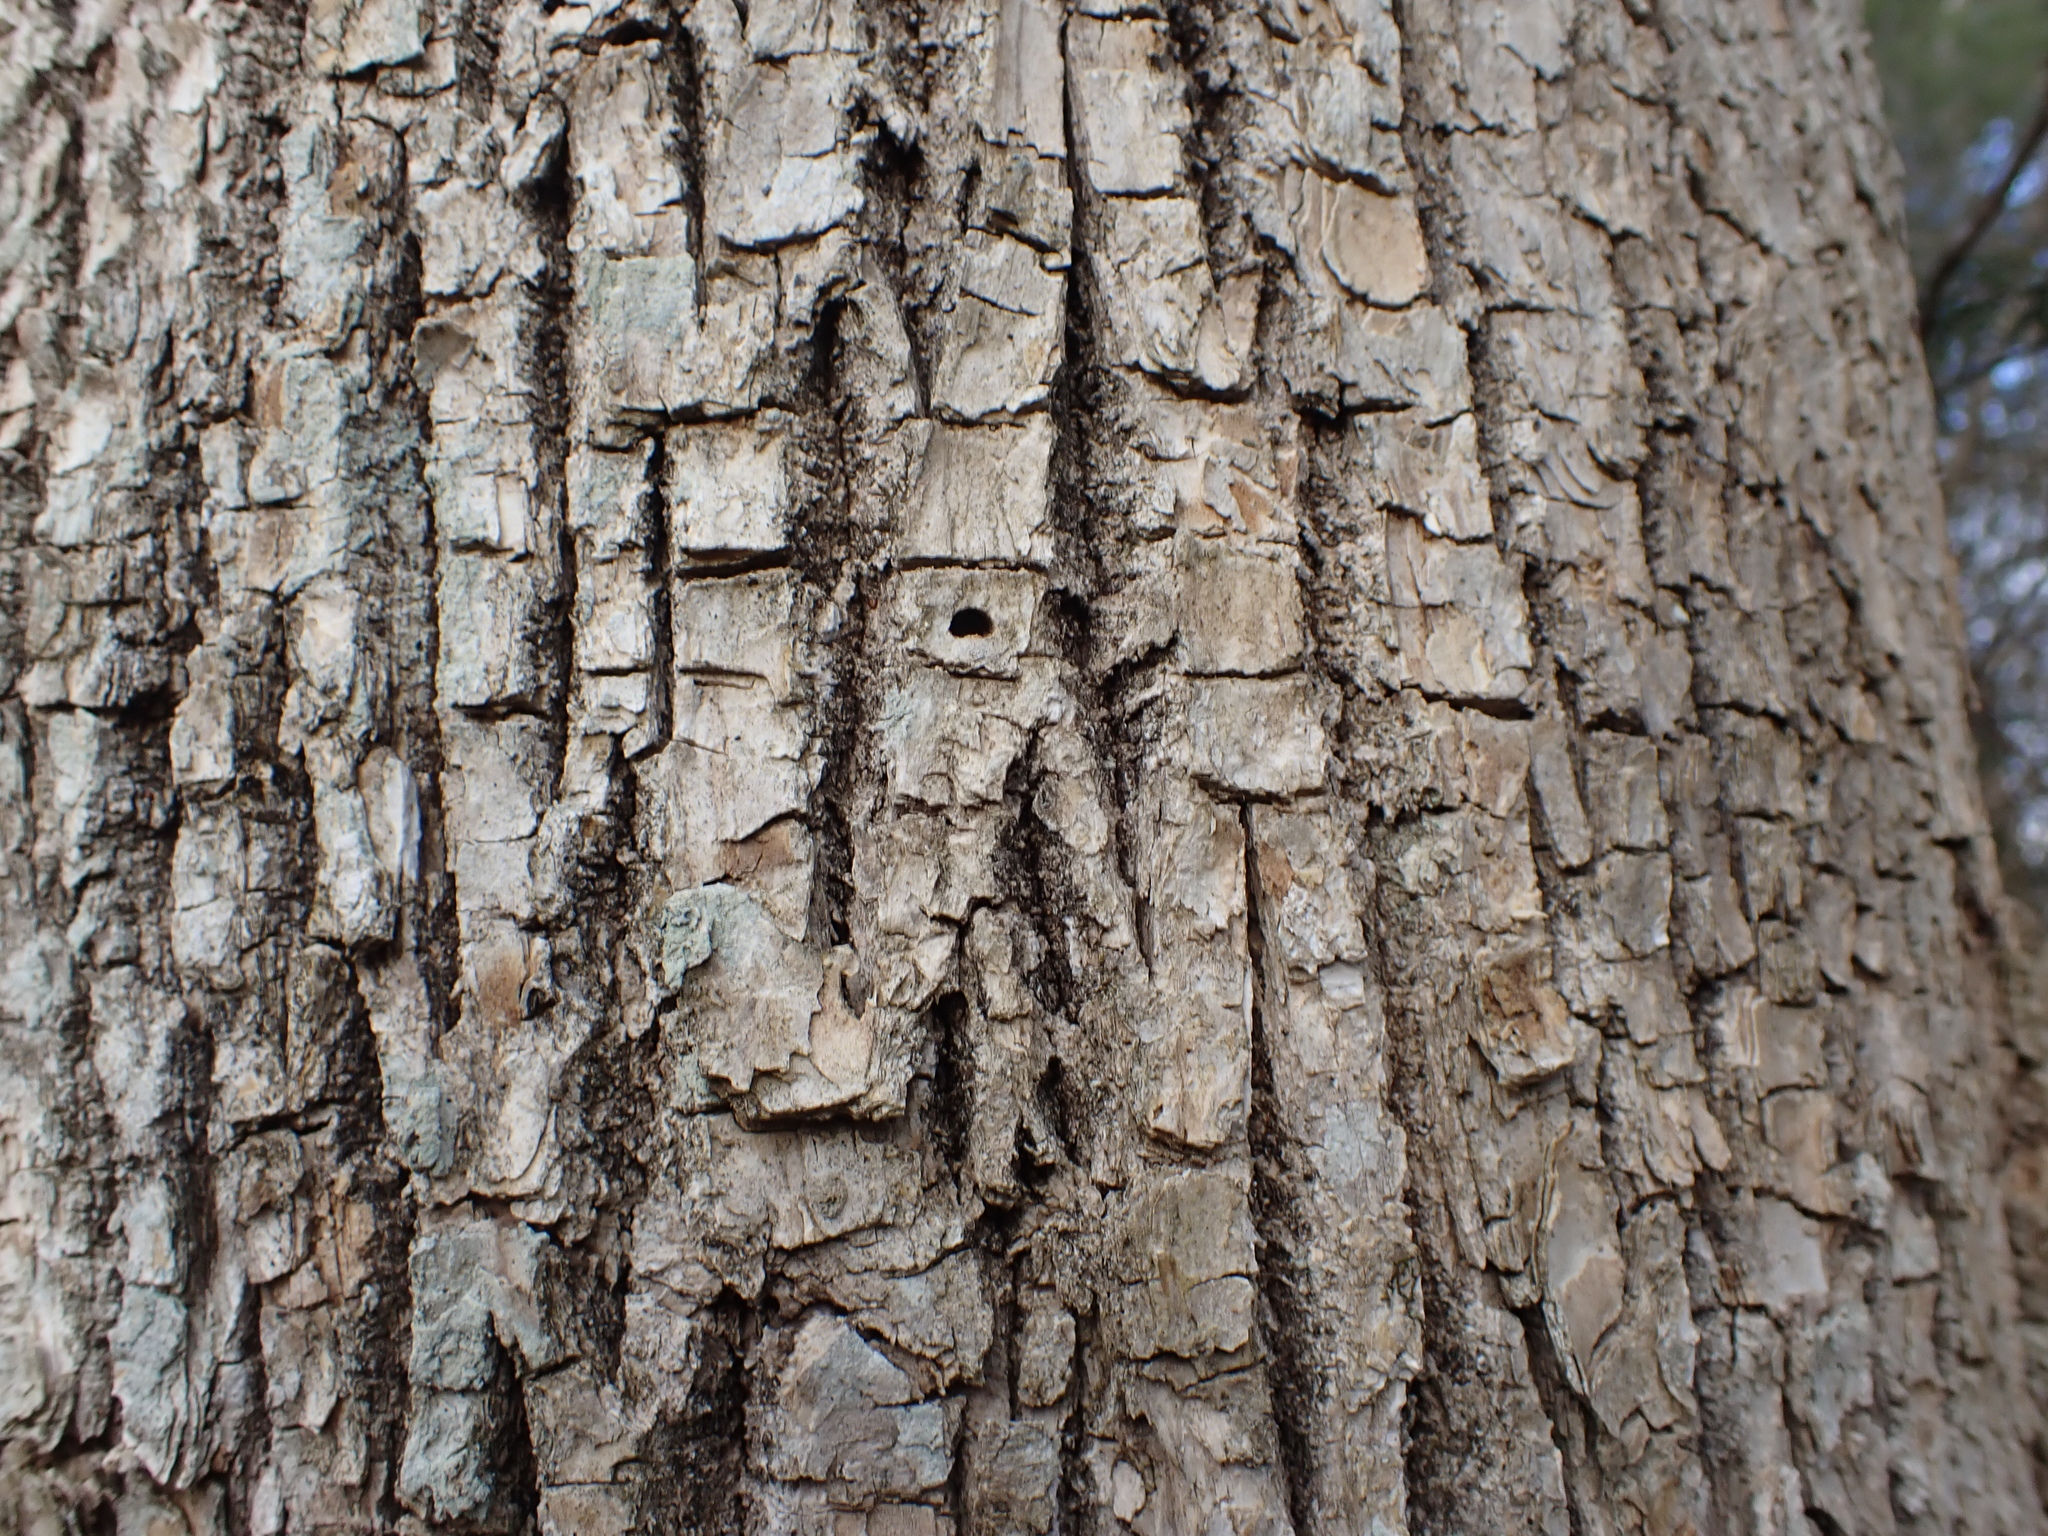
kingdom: Animalia
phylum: Arthropoda
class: Insecta
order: Coleoptera
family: Buprestidae
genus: Agrilus
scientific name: Agrilus planipennis
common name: Emerald ash borer
